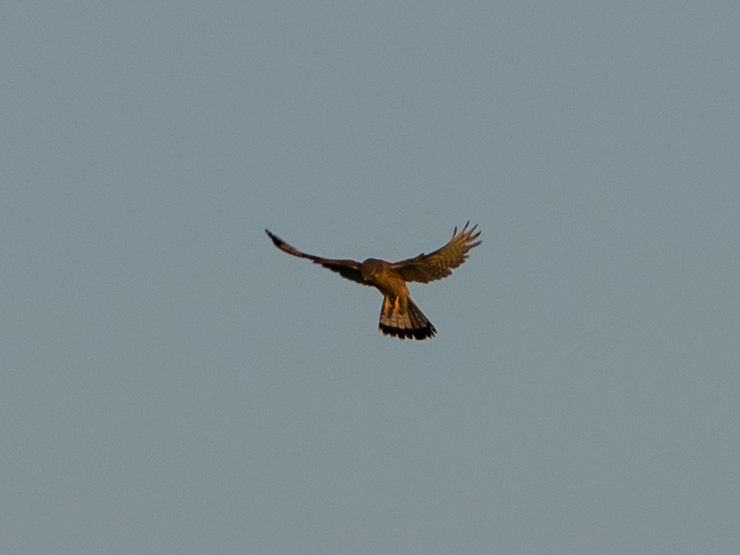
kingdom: Animalia
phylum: Chordata
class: Aves
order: Falconiformes
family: Falconidae
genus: Falco
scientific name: Falco tinnunculus
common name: Common kestrel
